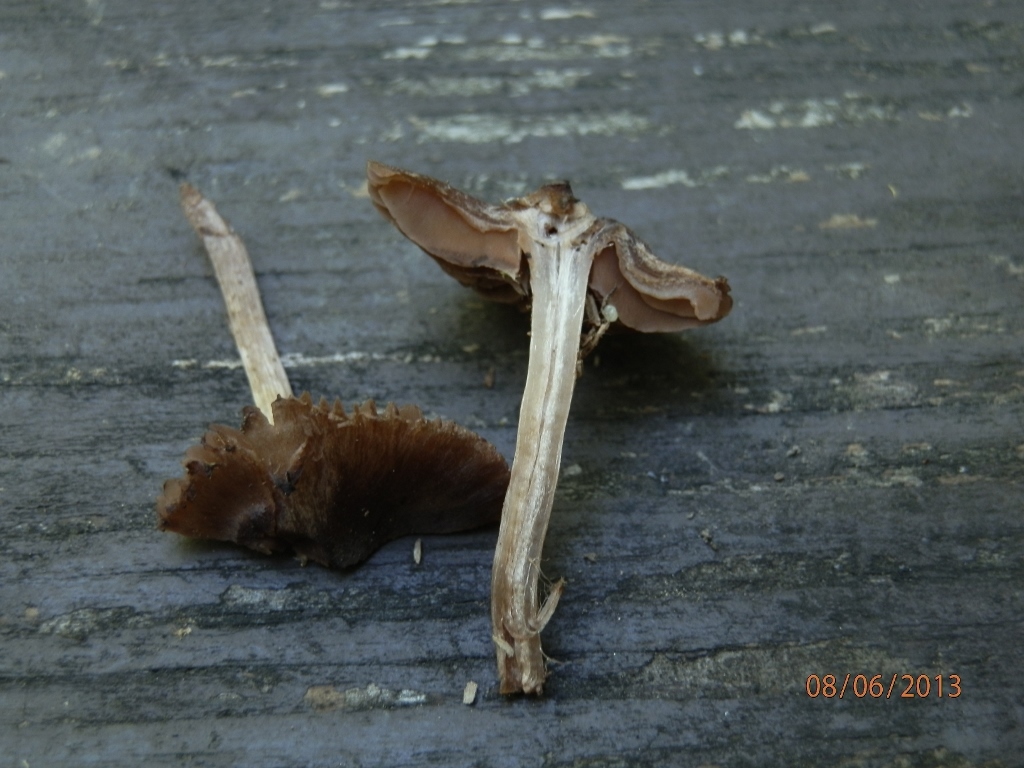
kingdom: Fungi
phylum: Basidiomycota
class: Agaricomycetes
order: Agaricales
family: Inocybaceae
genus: Inocybe
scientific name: Inocybe fuscodisca
